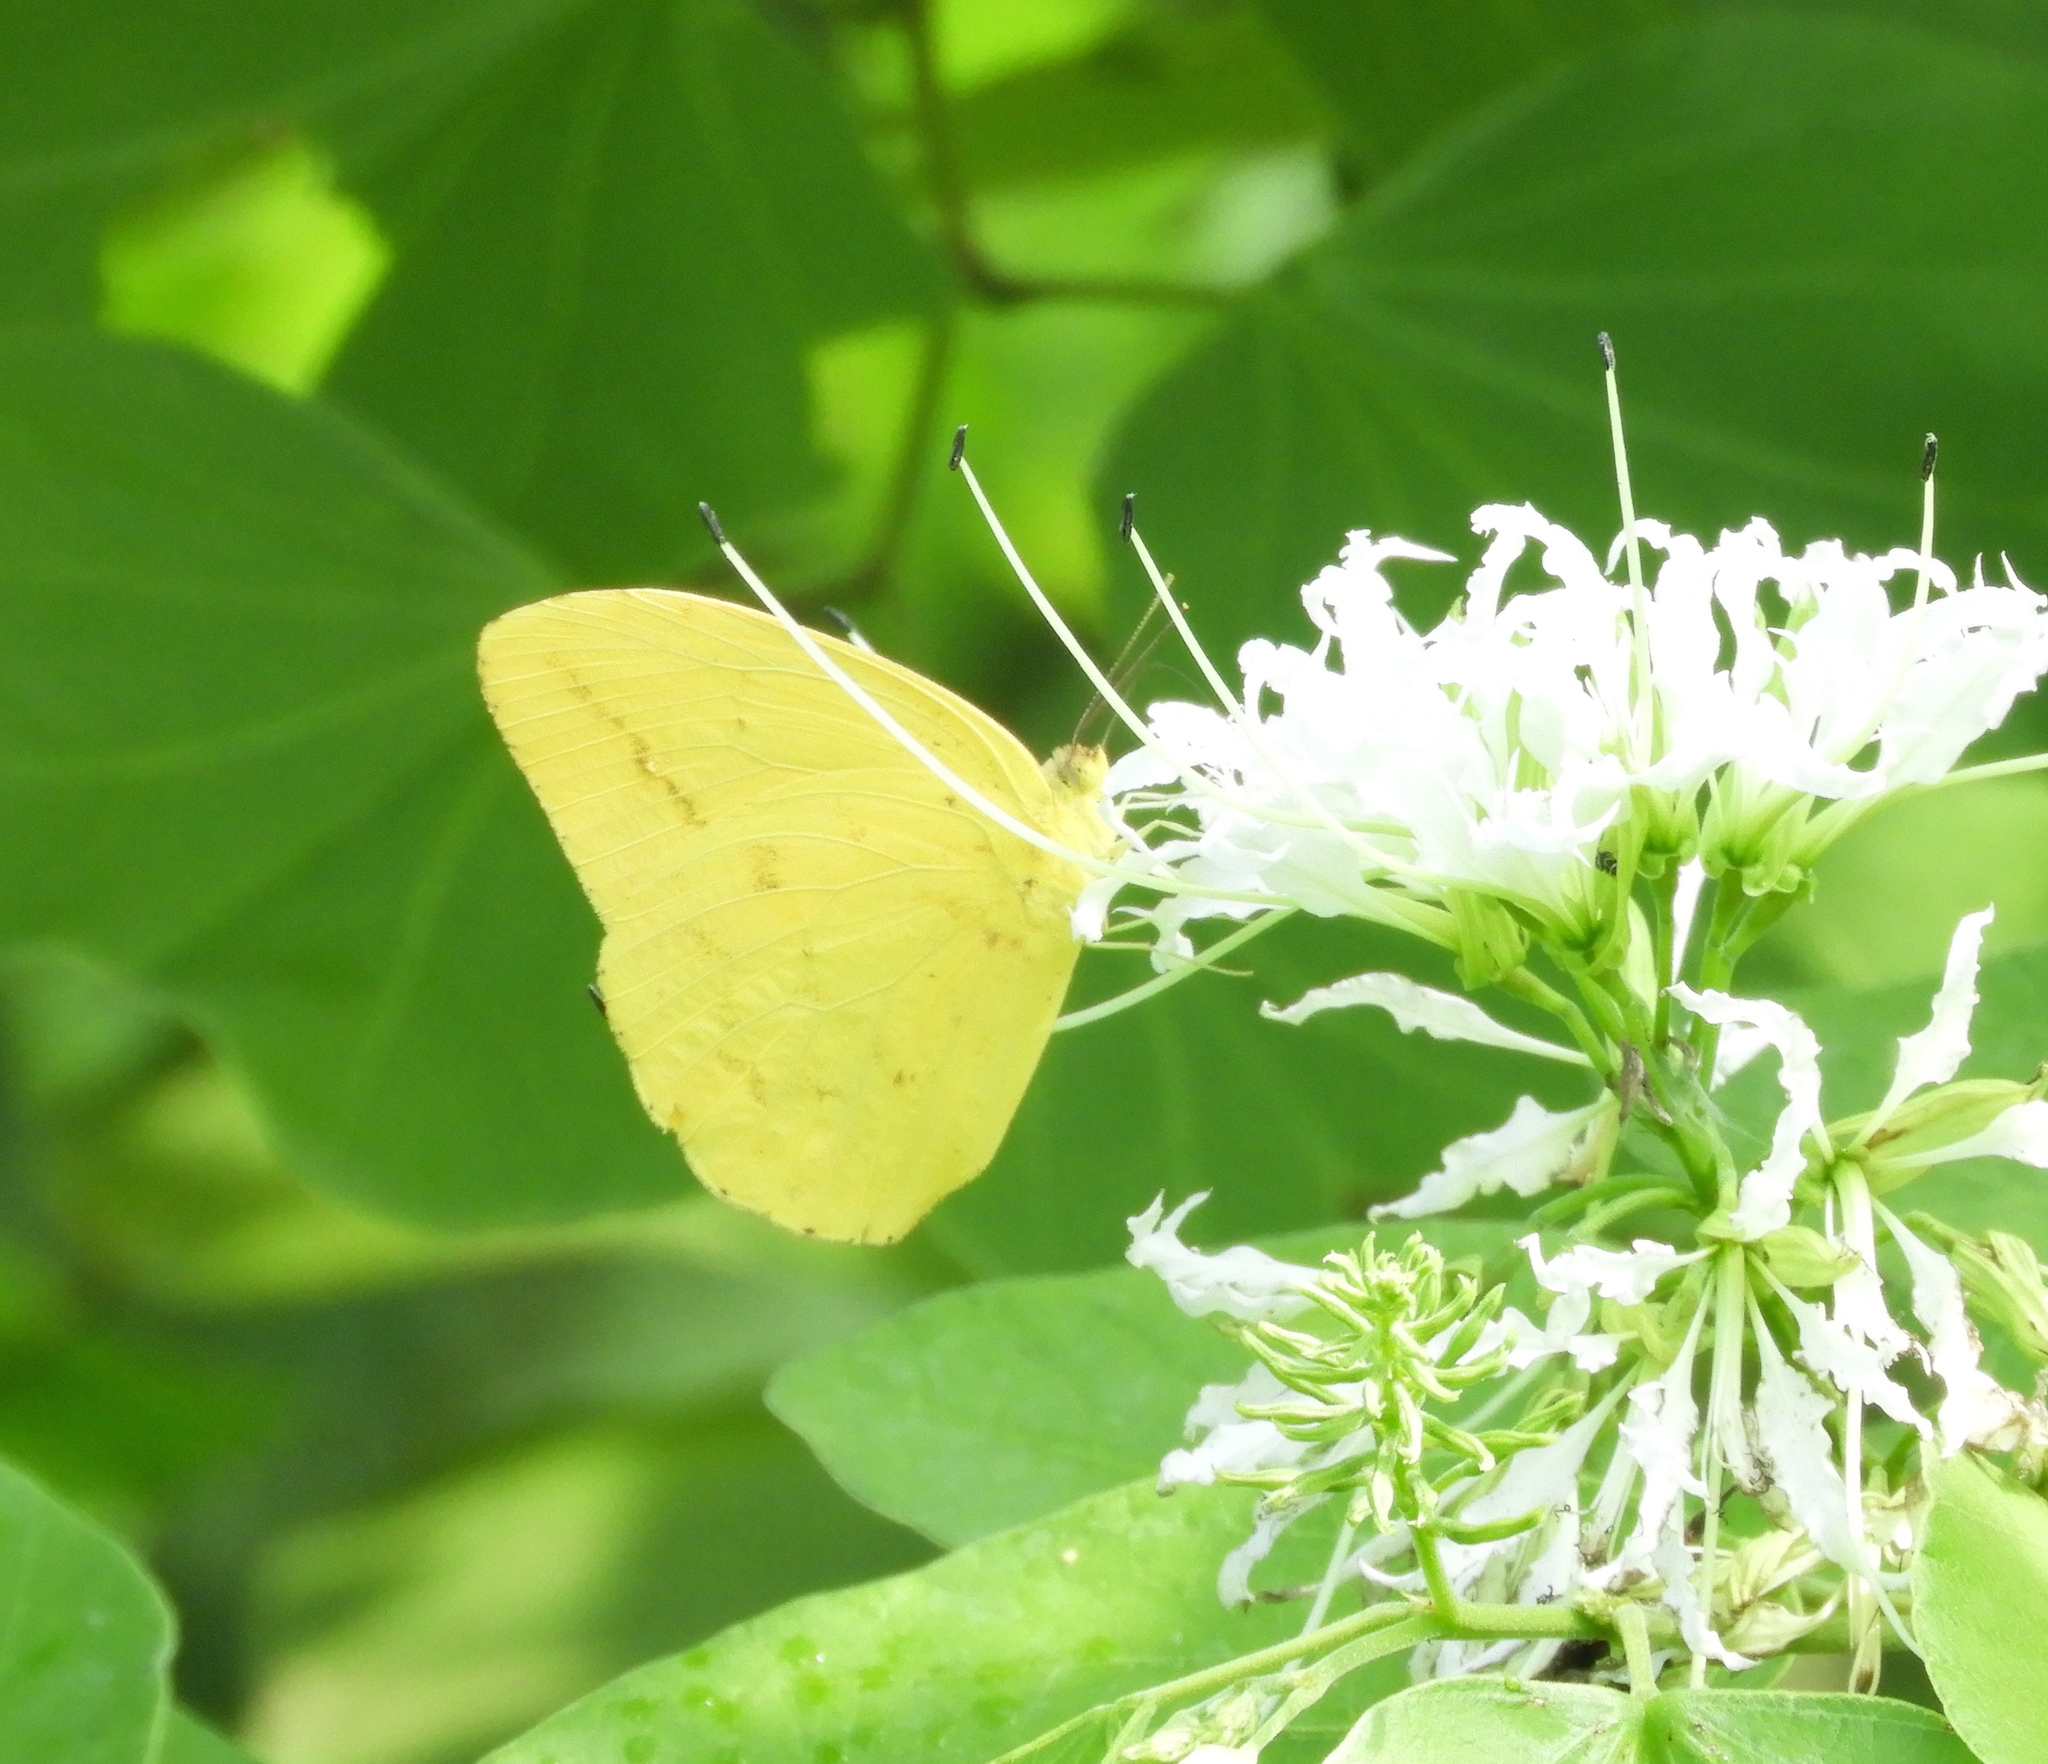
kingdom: Animalia
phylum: Arthropoda
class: Insecta
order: Lepidoptera
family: Pieridae
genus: Phoebis
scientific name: Phoebis agarithe
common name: Large orange sulphur
